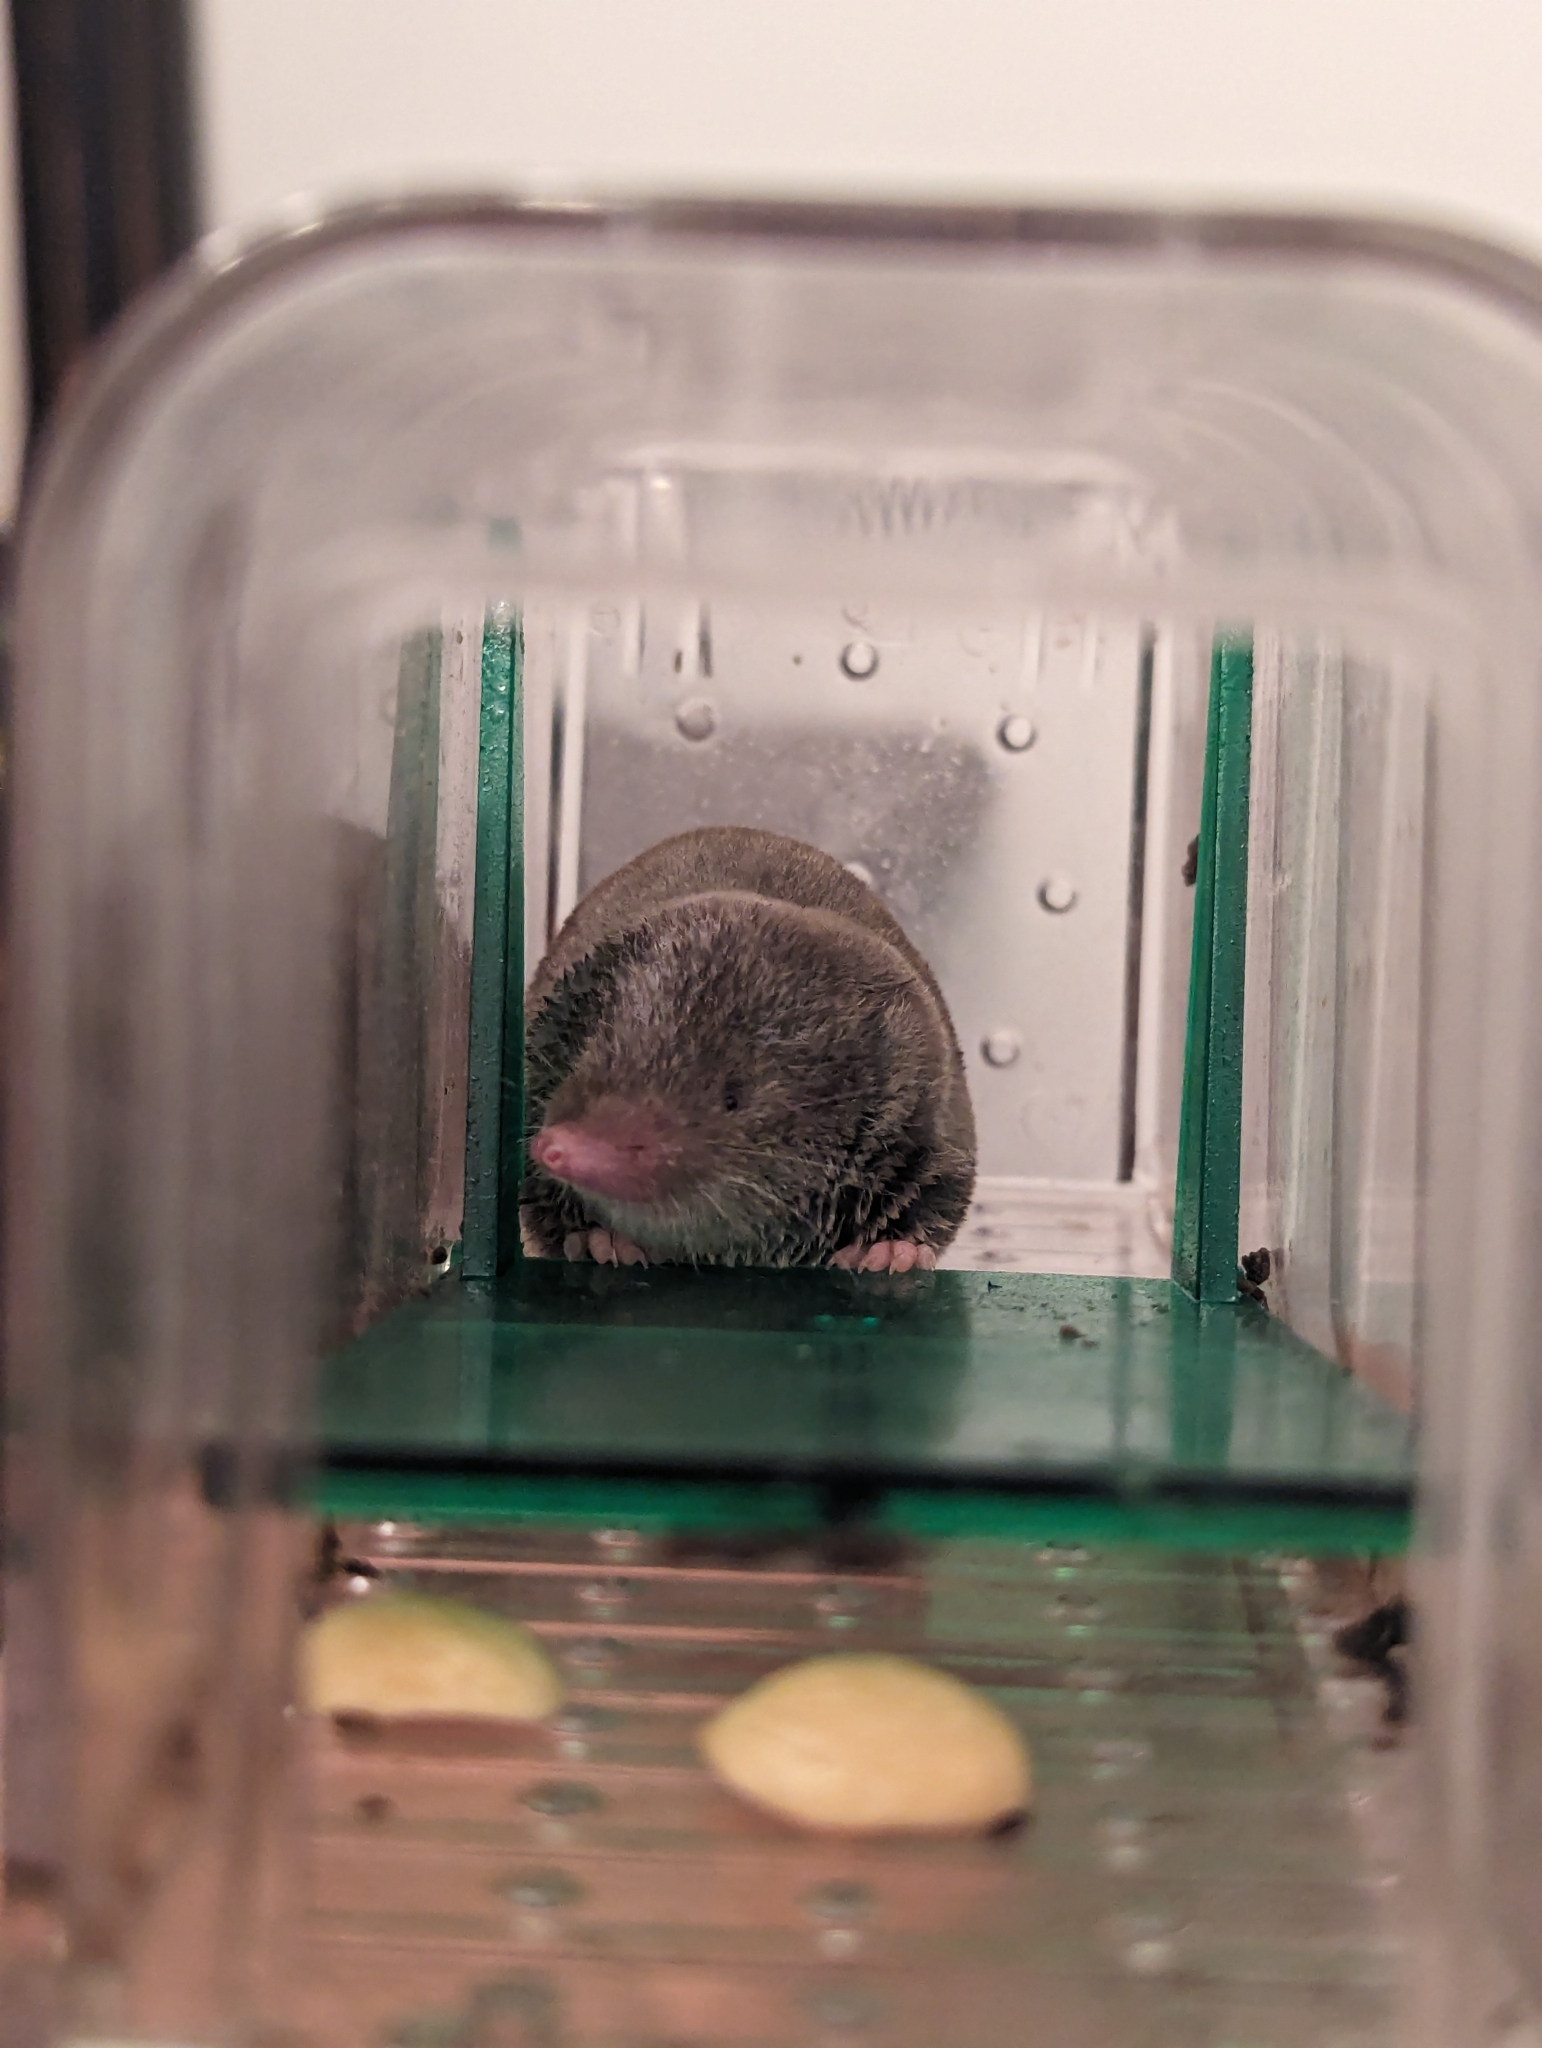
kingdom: Animalia
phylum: Chordata
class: Mammalia
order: Soricomorpha
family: Soricidae
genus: Blarina
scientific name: Blarina brevicauda
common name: Northern short-tailed shrew
